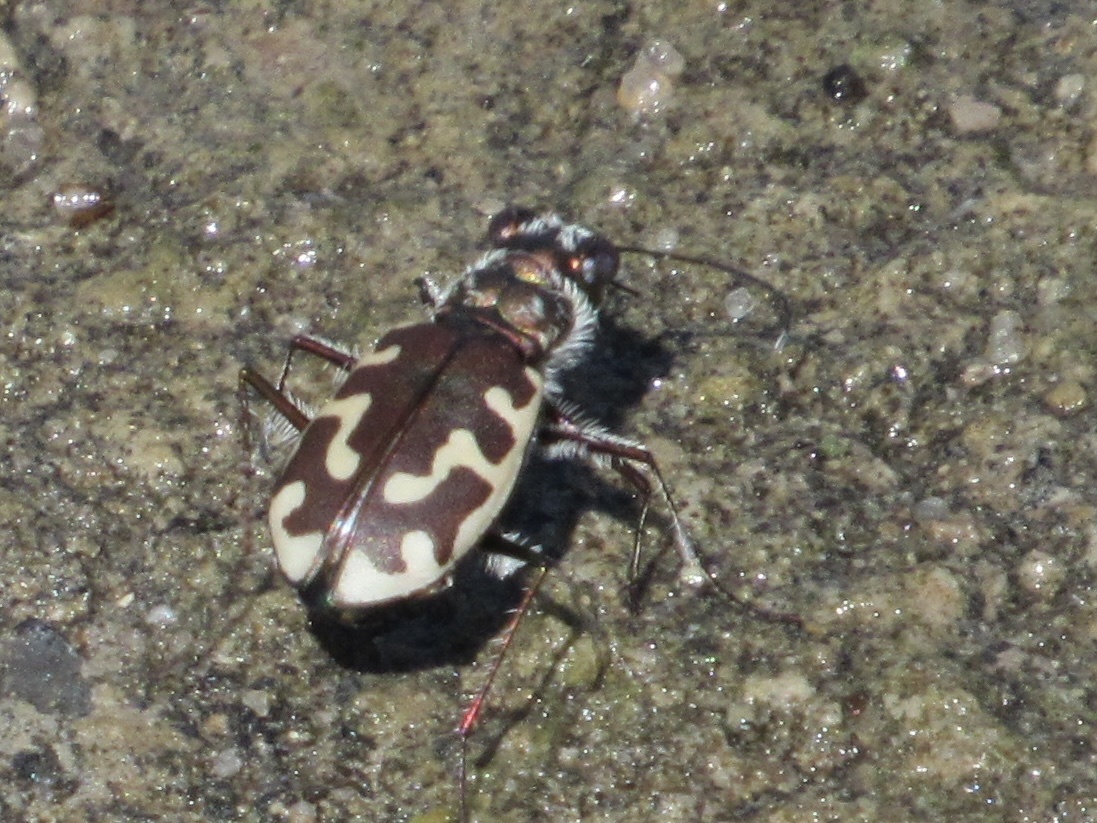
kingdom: Animalia
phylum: Arthropoda
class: Insecta
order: Coleoptera
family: Carabidae
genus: Cicindela
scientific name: Cicindela hirticollis
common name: Hairy-necked tiger beetle
